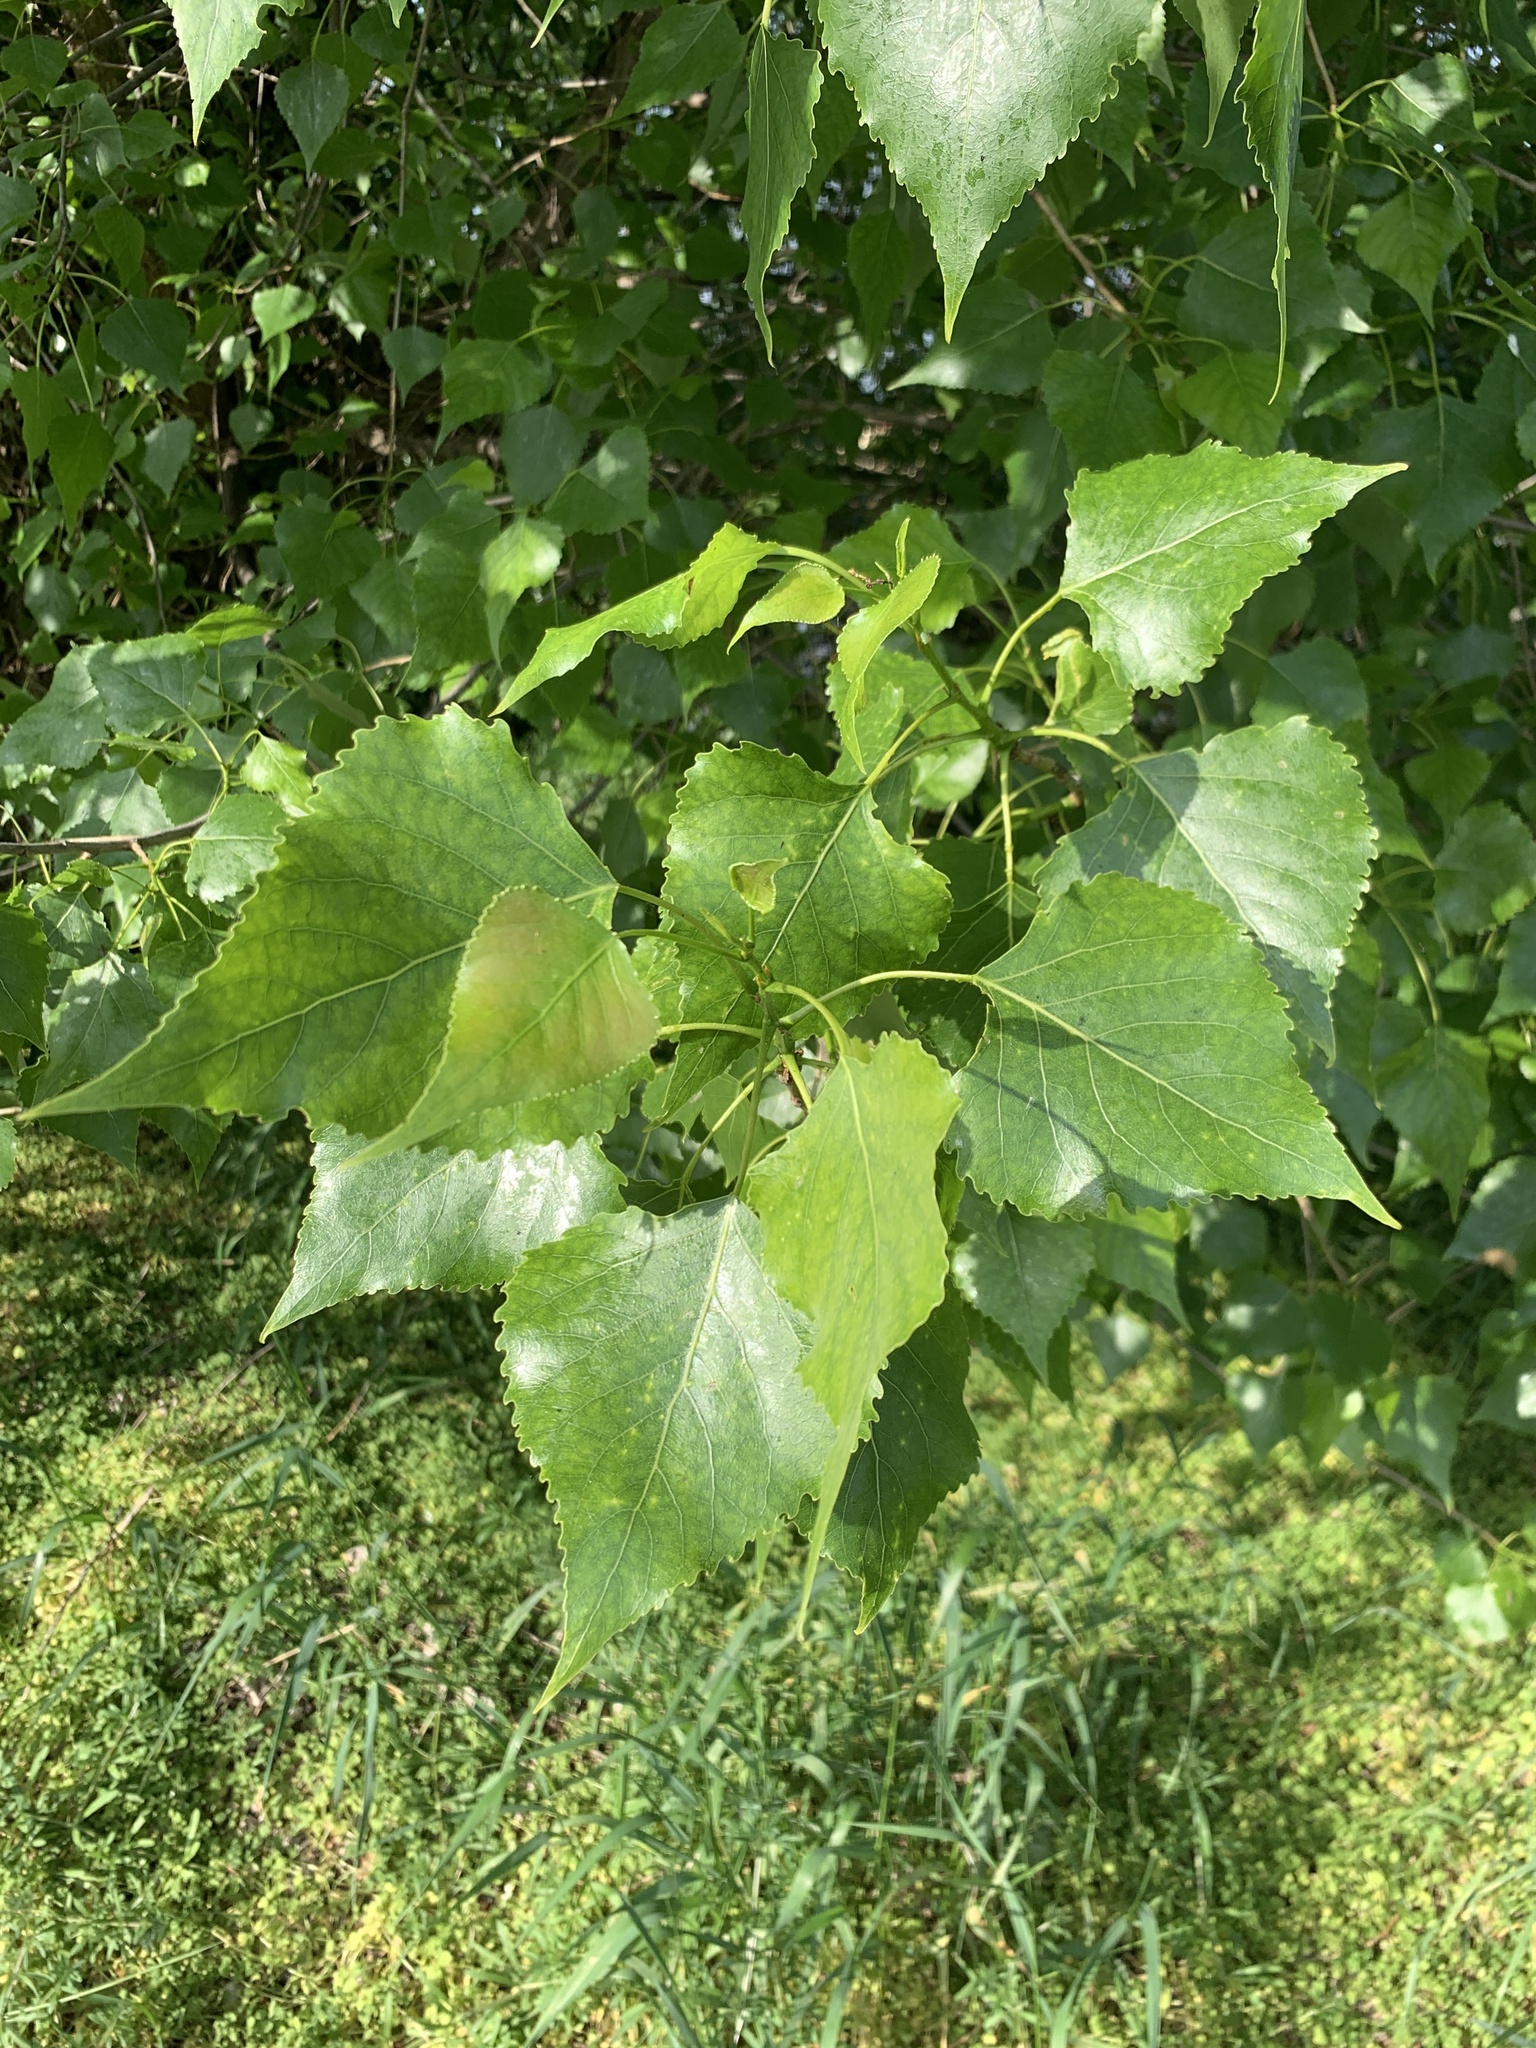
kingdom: Plantae
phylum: Tracheophyta
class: Magnoliopsida
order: Malpighiales
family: Salicaceae
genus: Populus
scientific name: Populus nigra
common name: Black poplar
